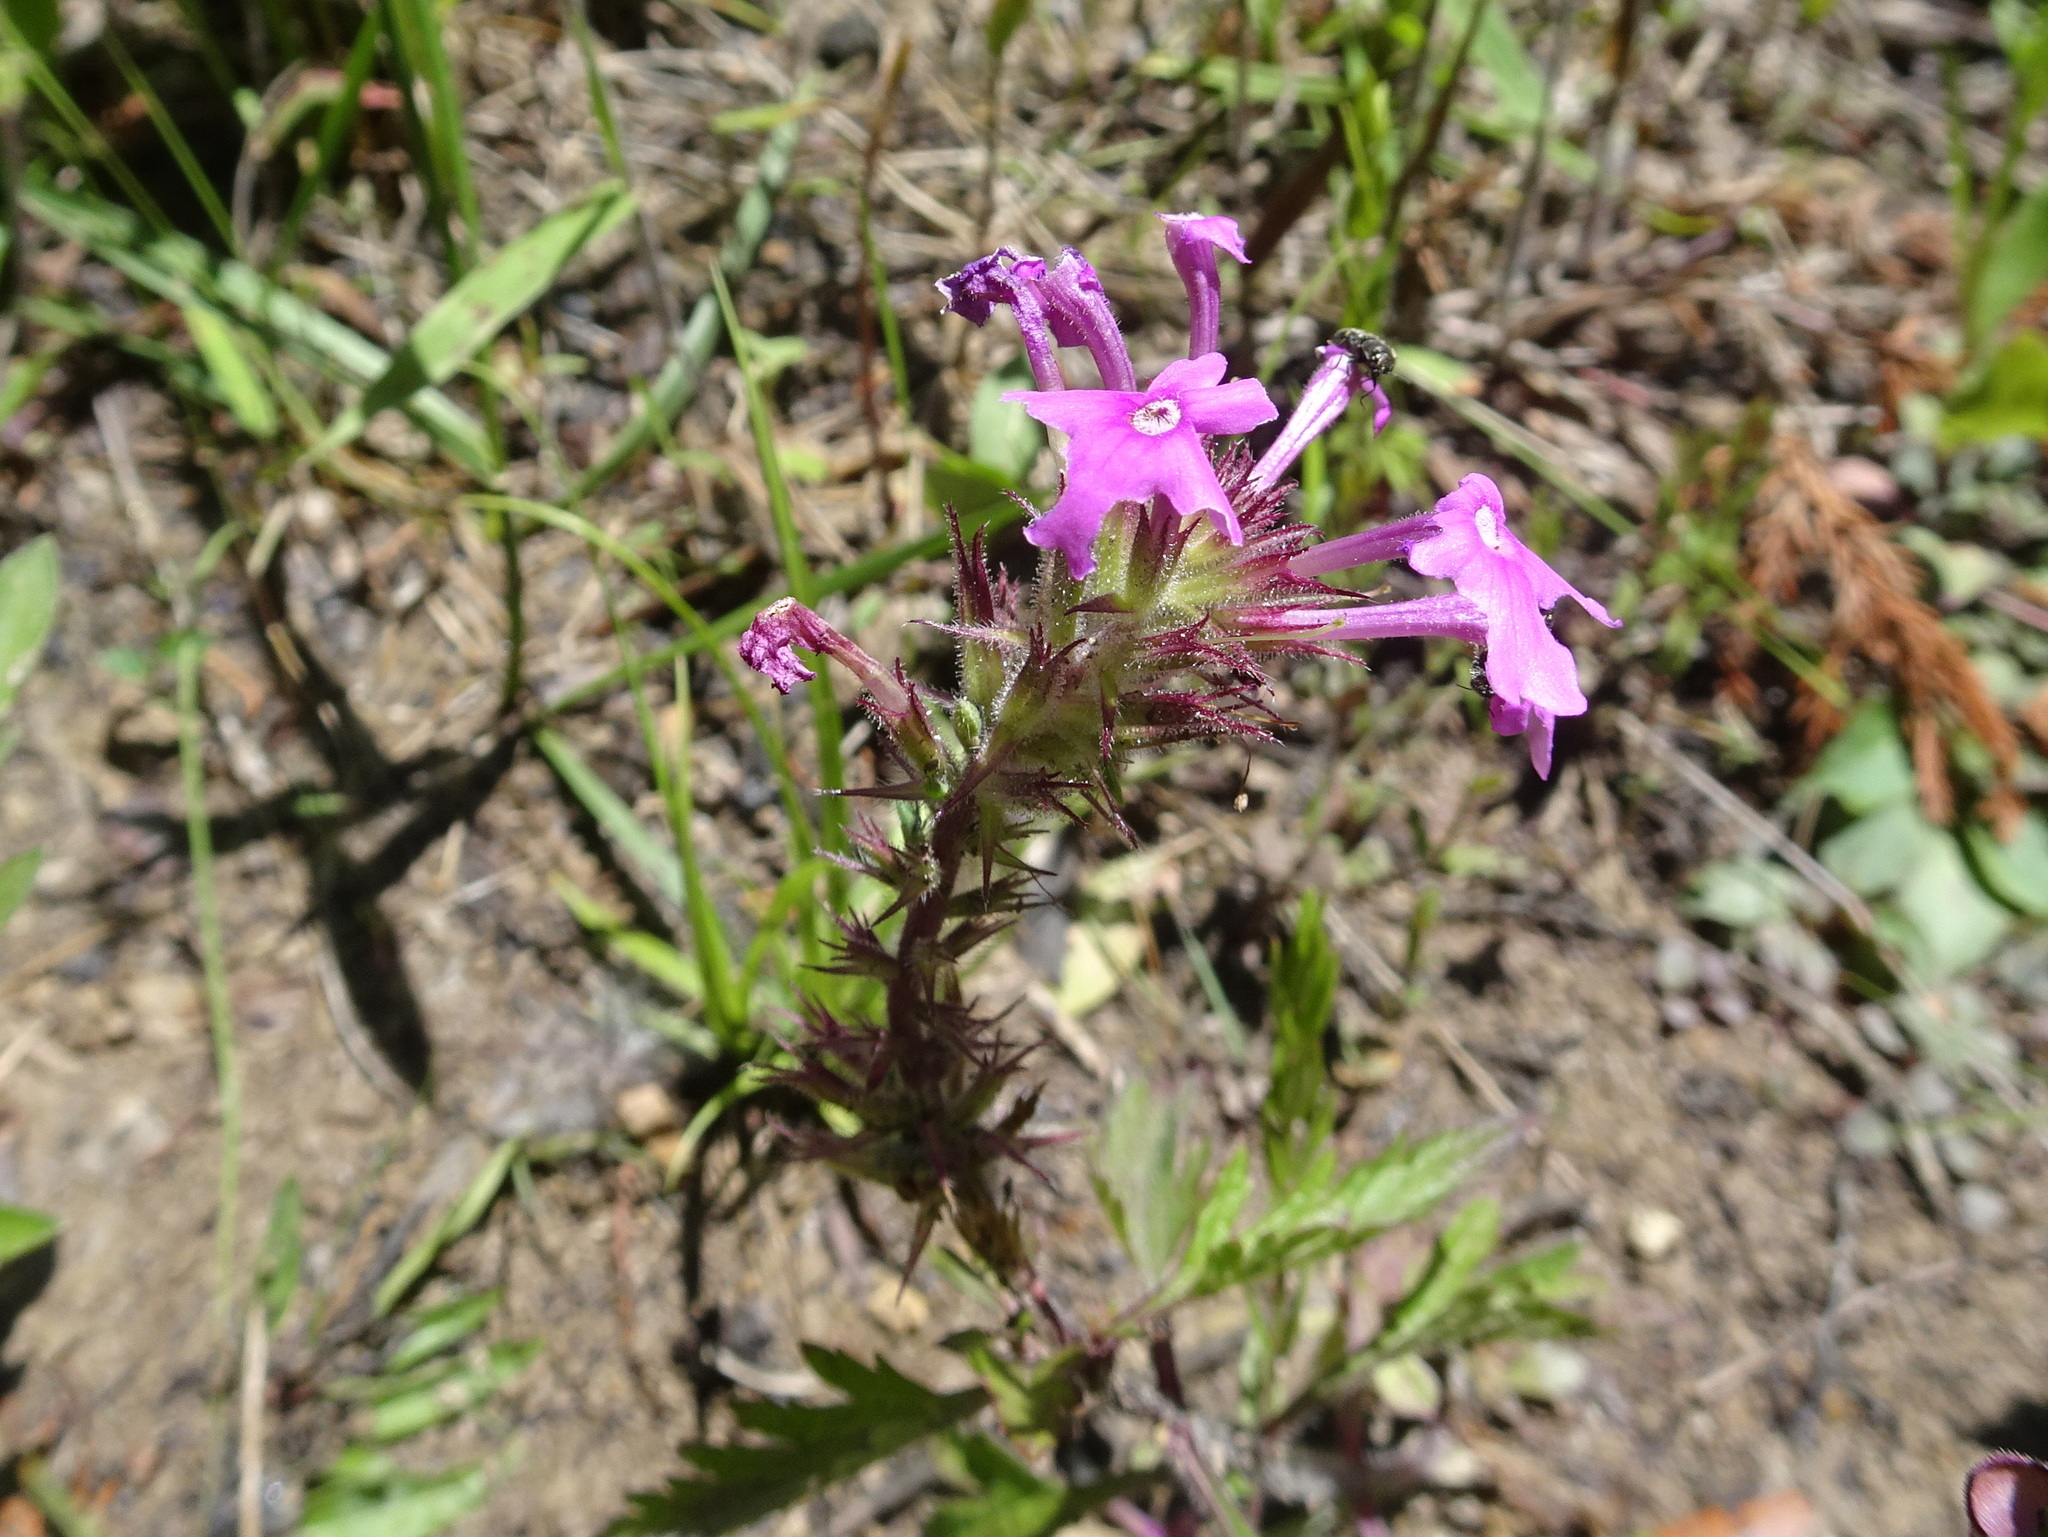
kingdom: Plantae
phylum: Tracheophyta
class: Magnoliopsida
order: Lamiales
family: Verbenaceae
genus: Verbena
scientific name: Verbena canadensis
